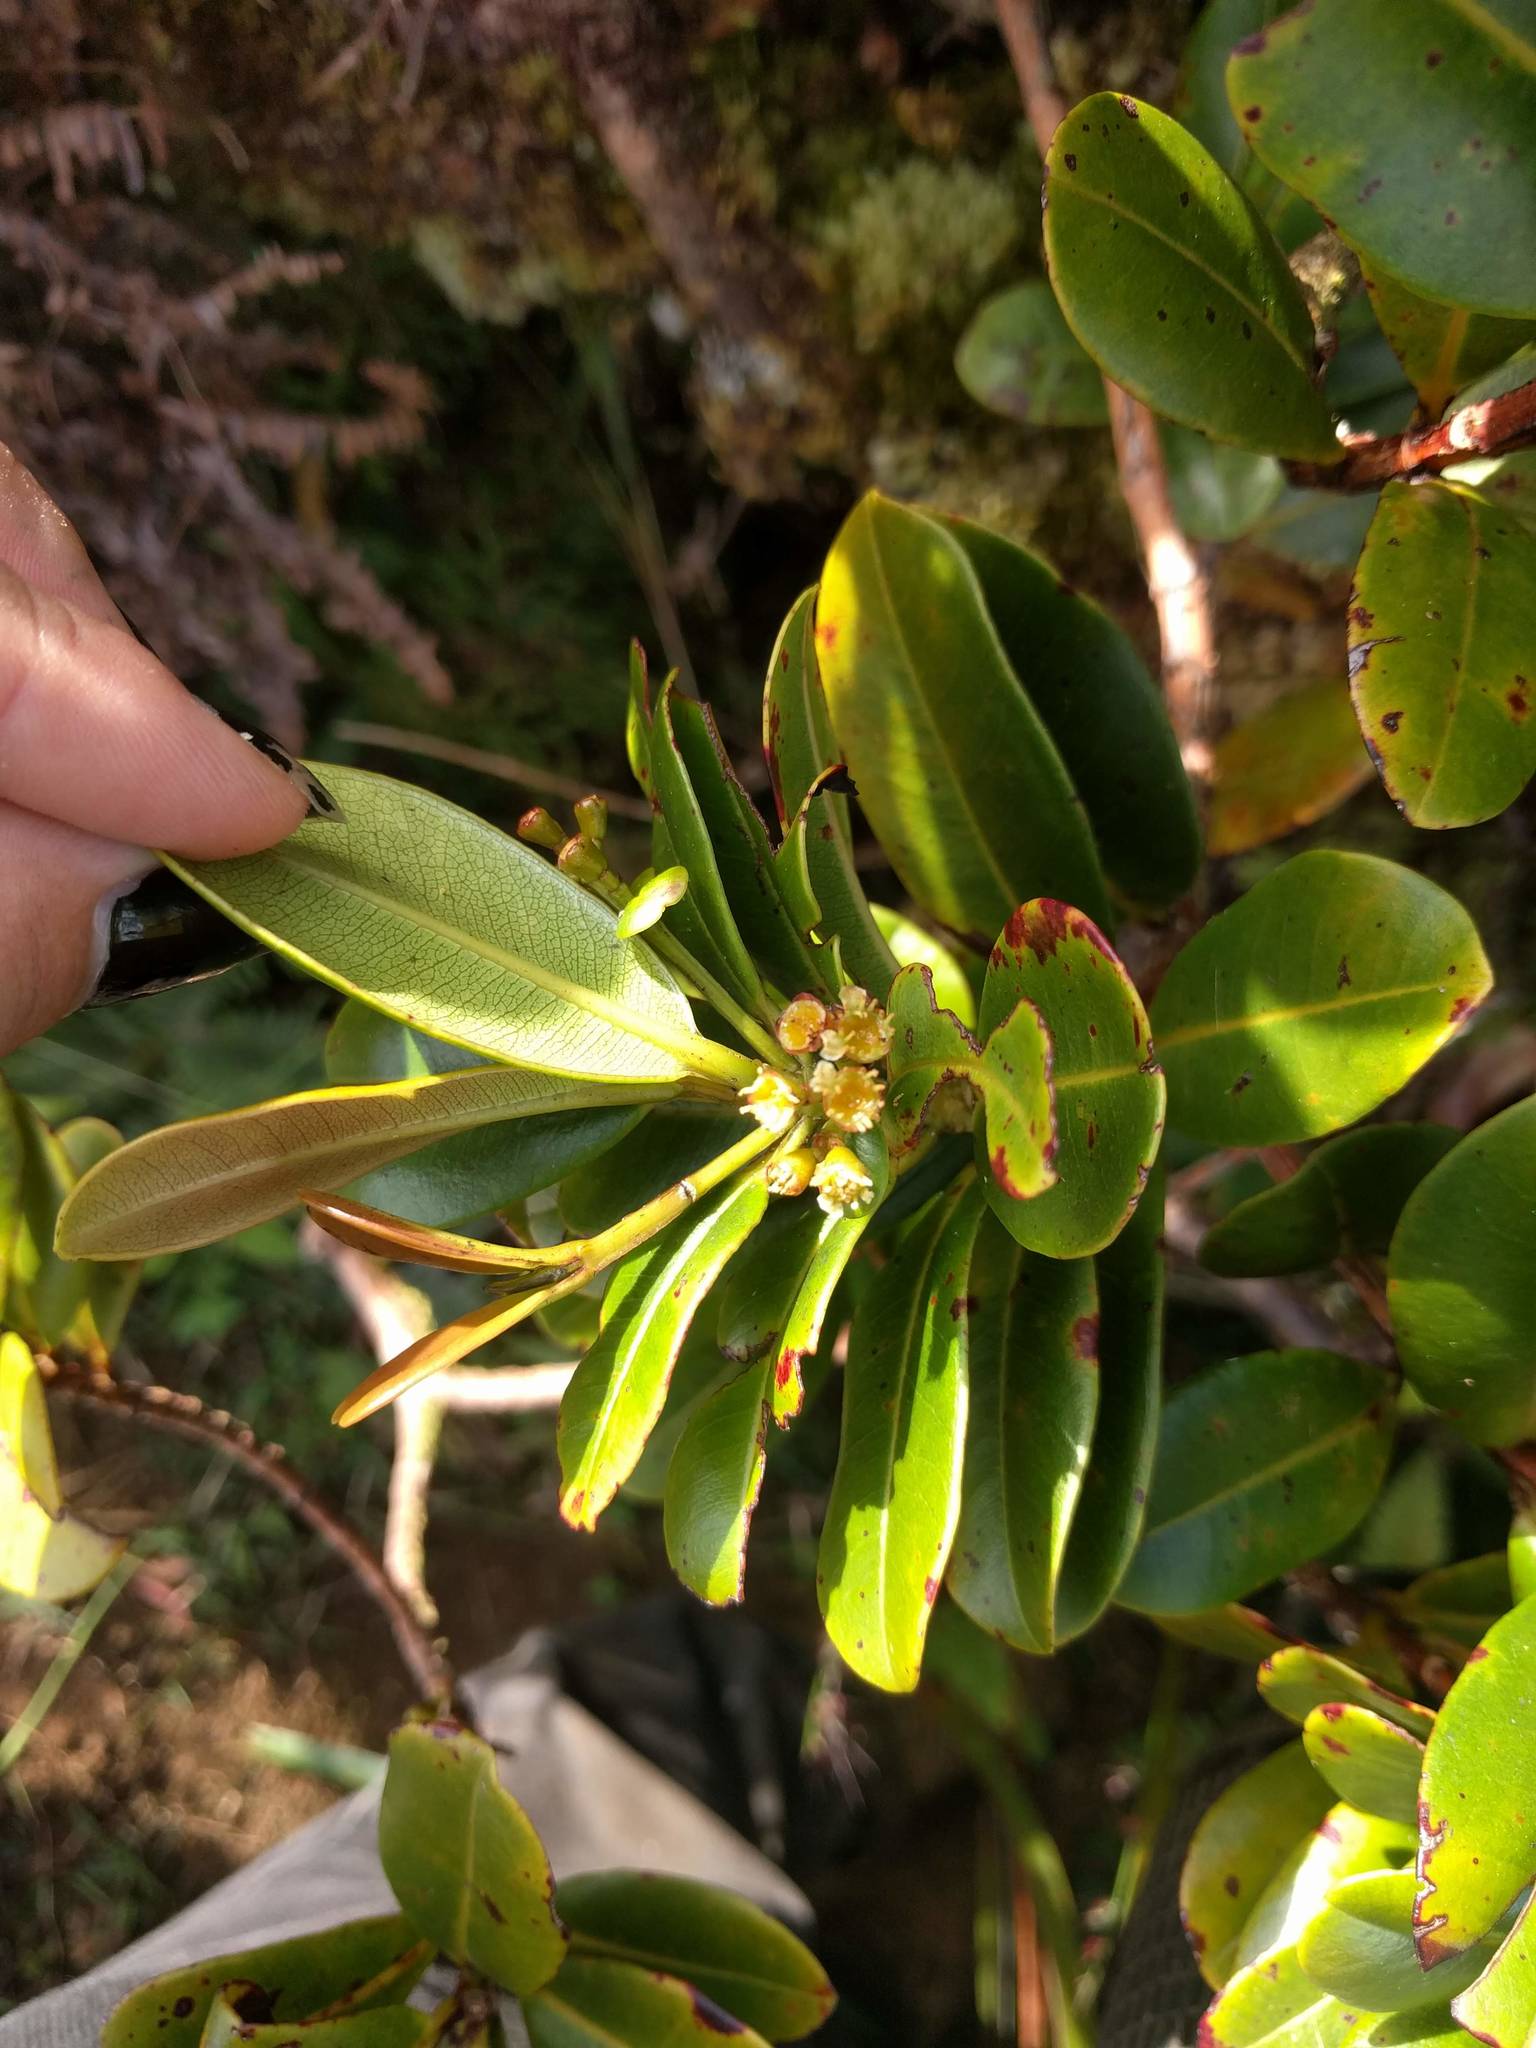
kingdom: Plantae
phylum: Tracheophyta
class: Magnoliopsida
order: Myrtales
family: Myrtaceae
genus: Syzygium
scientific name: Syzygium sandwicense
